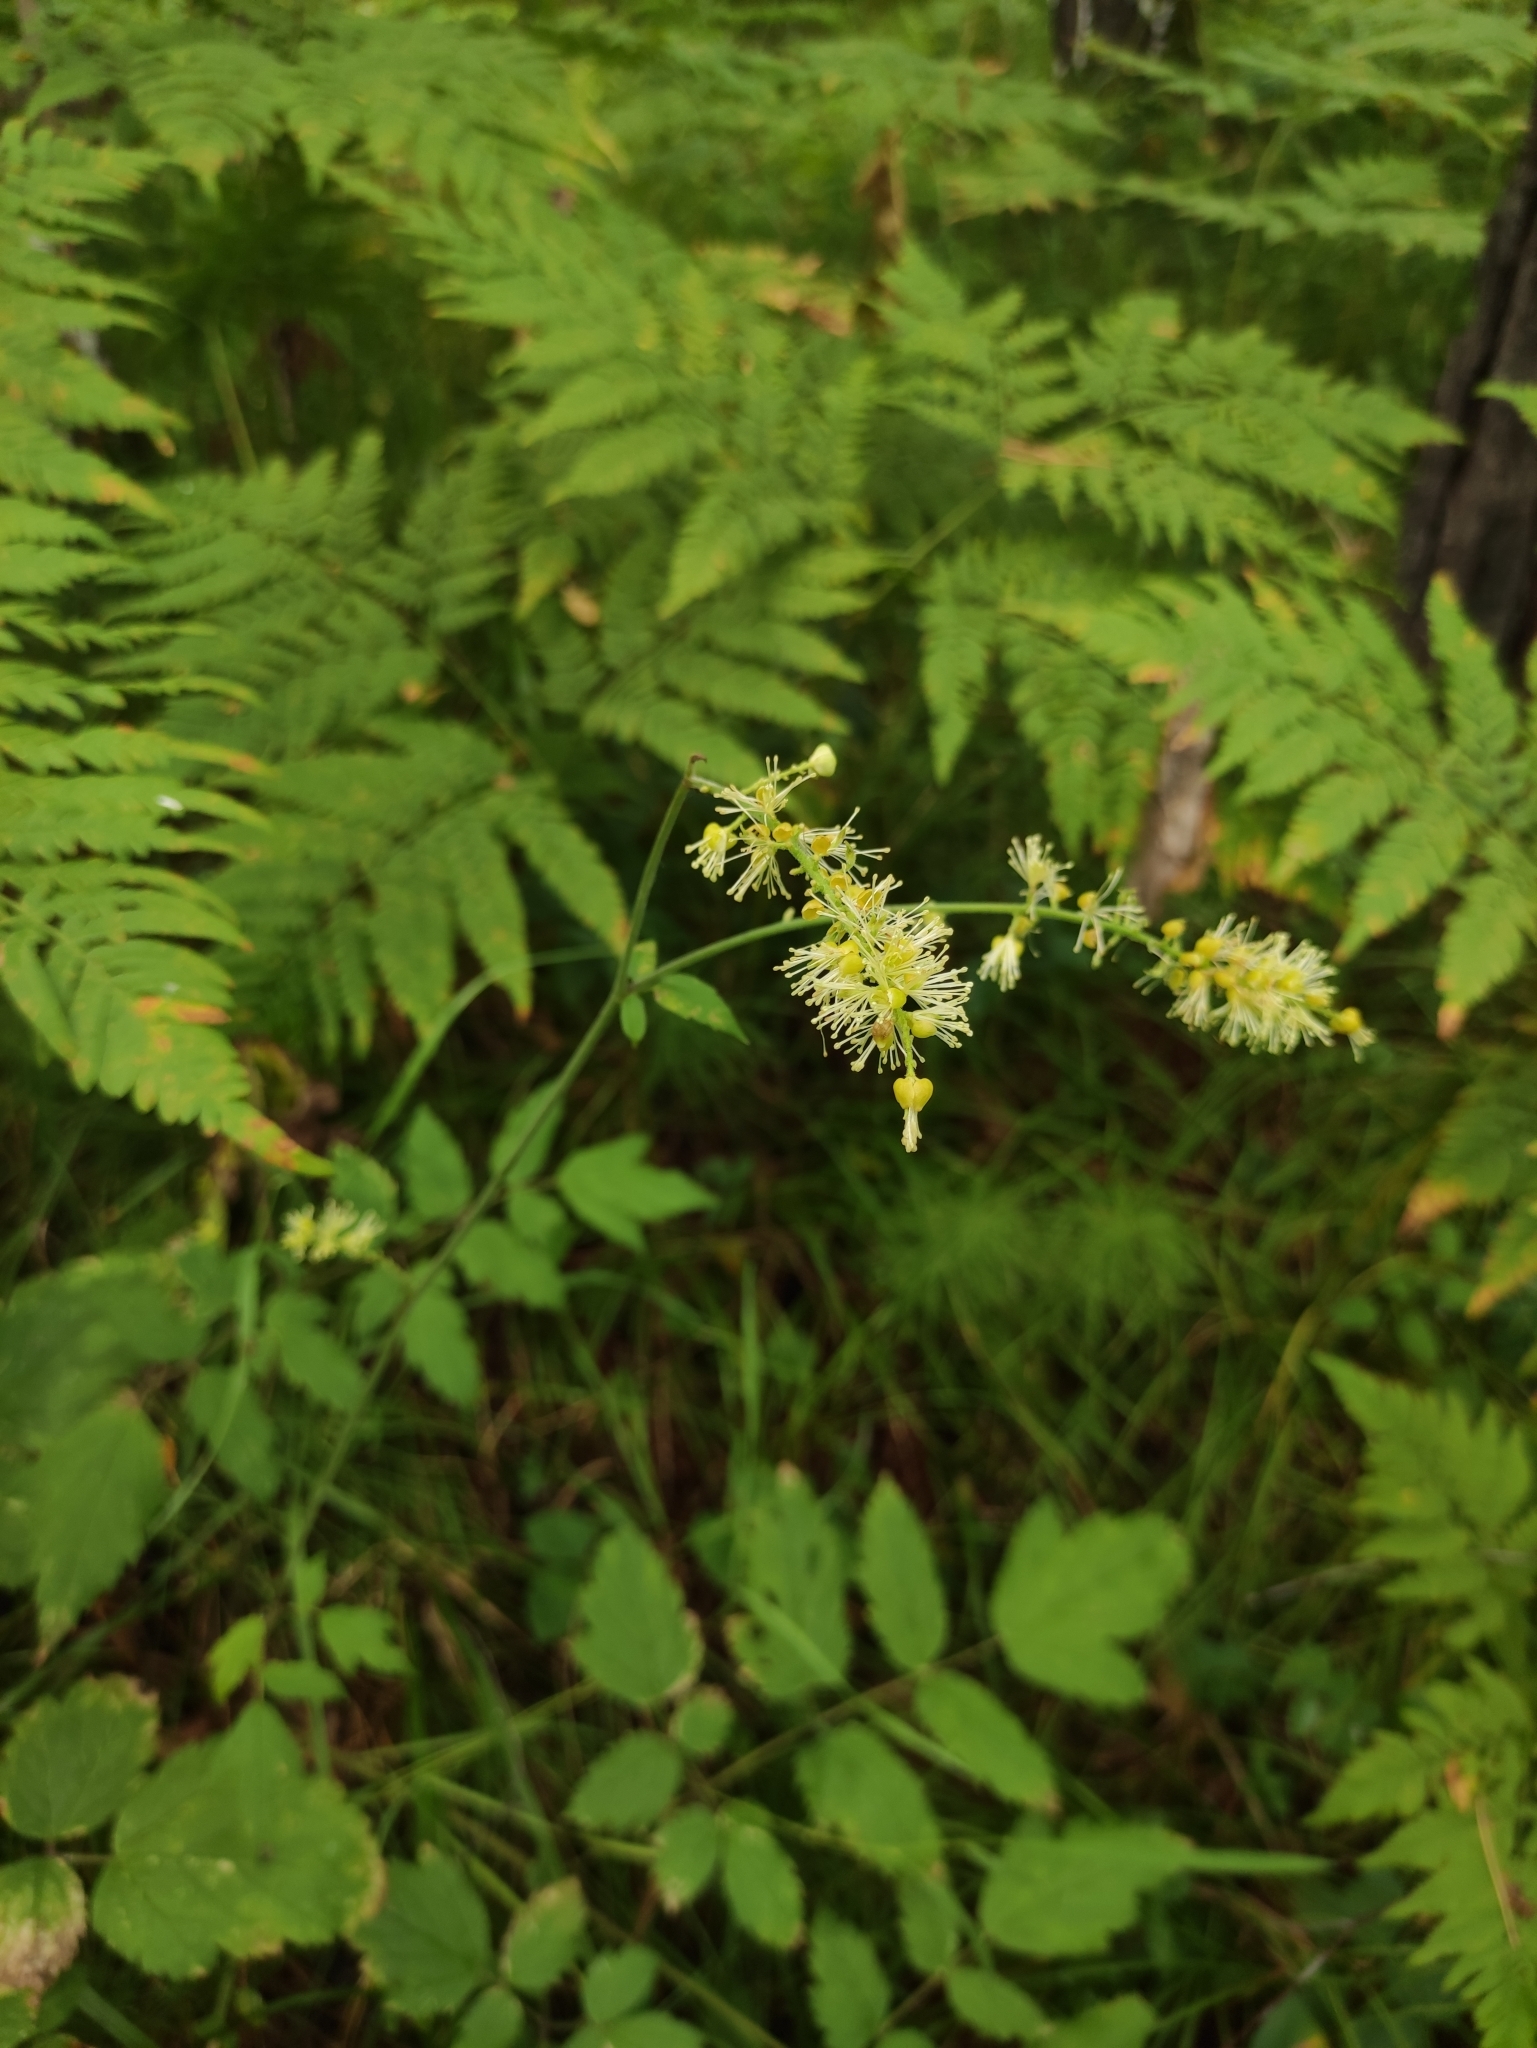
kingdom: Plantae
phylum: Tracheophyta
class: Magnoliopsida
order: Ranunculales
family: Ranunculaceae
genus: Actaea
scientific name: Actaea cimicifuga
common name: Chinese cimicifuga
